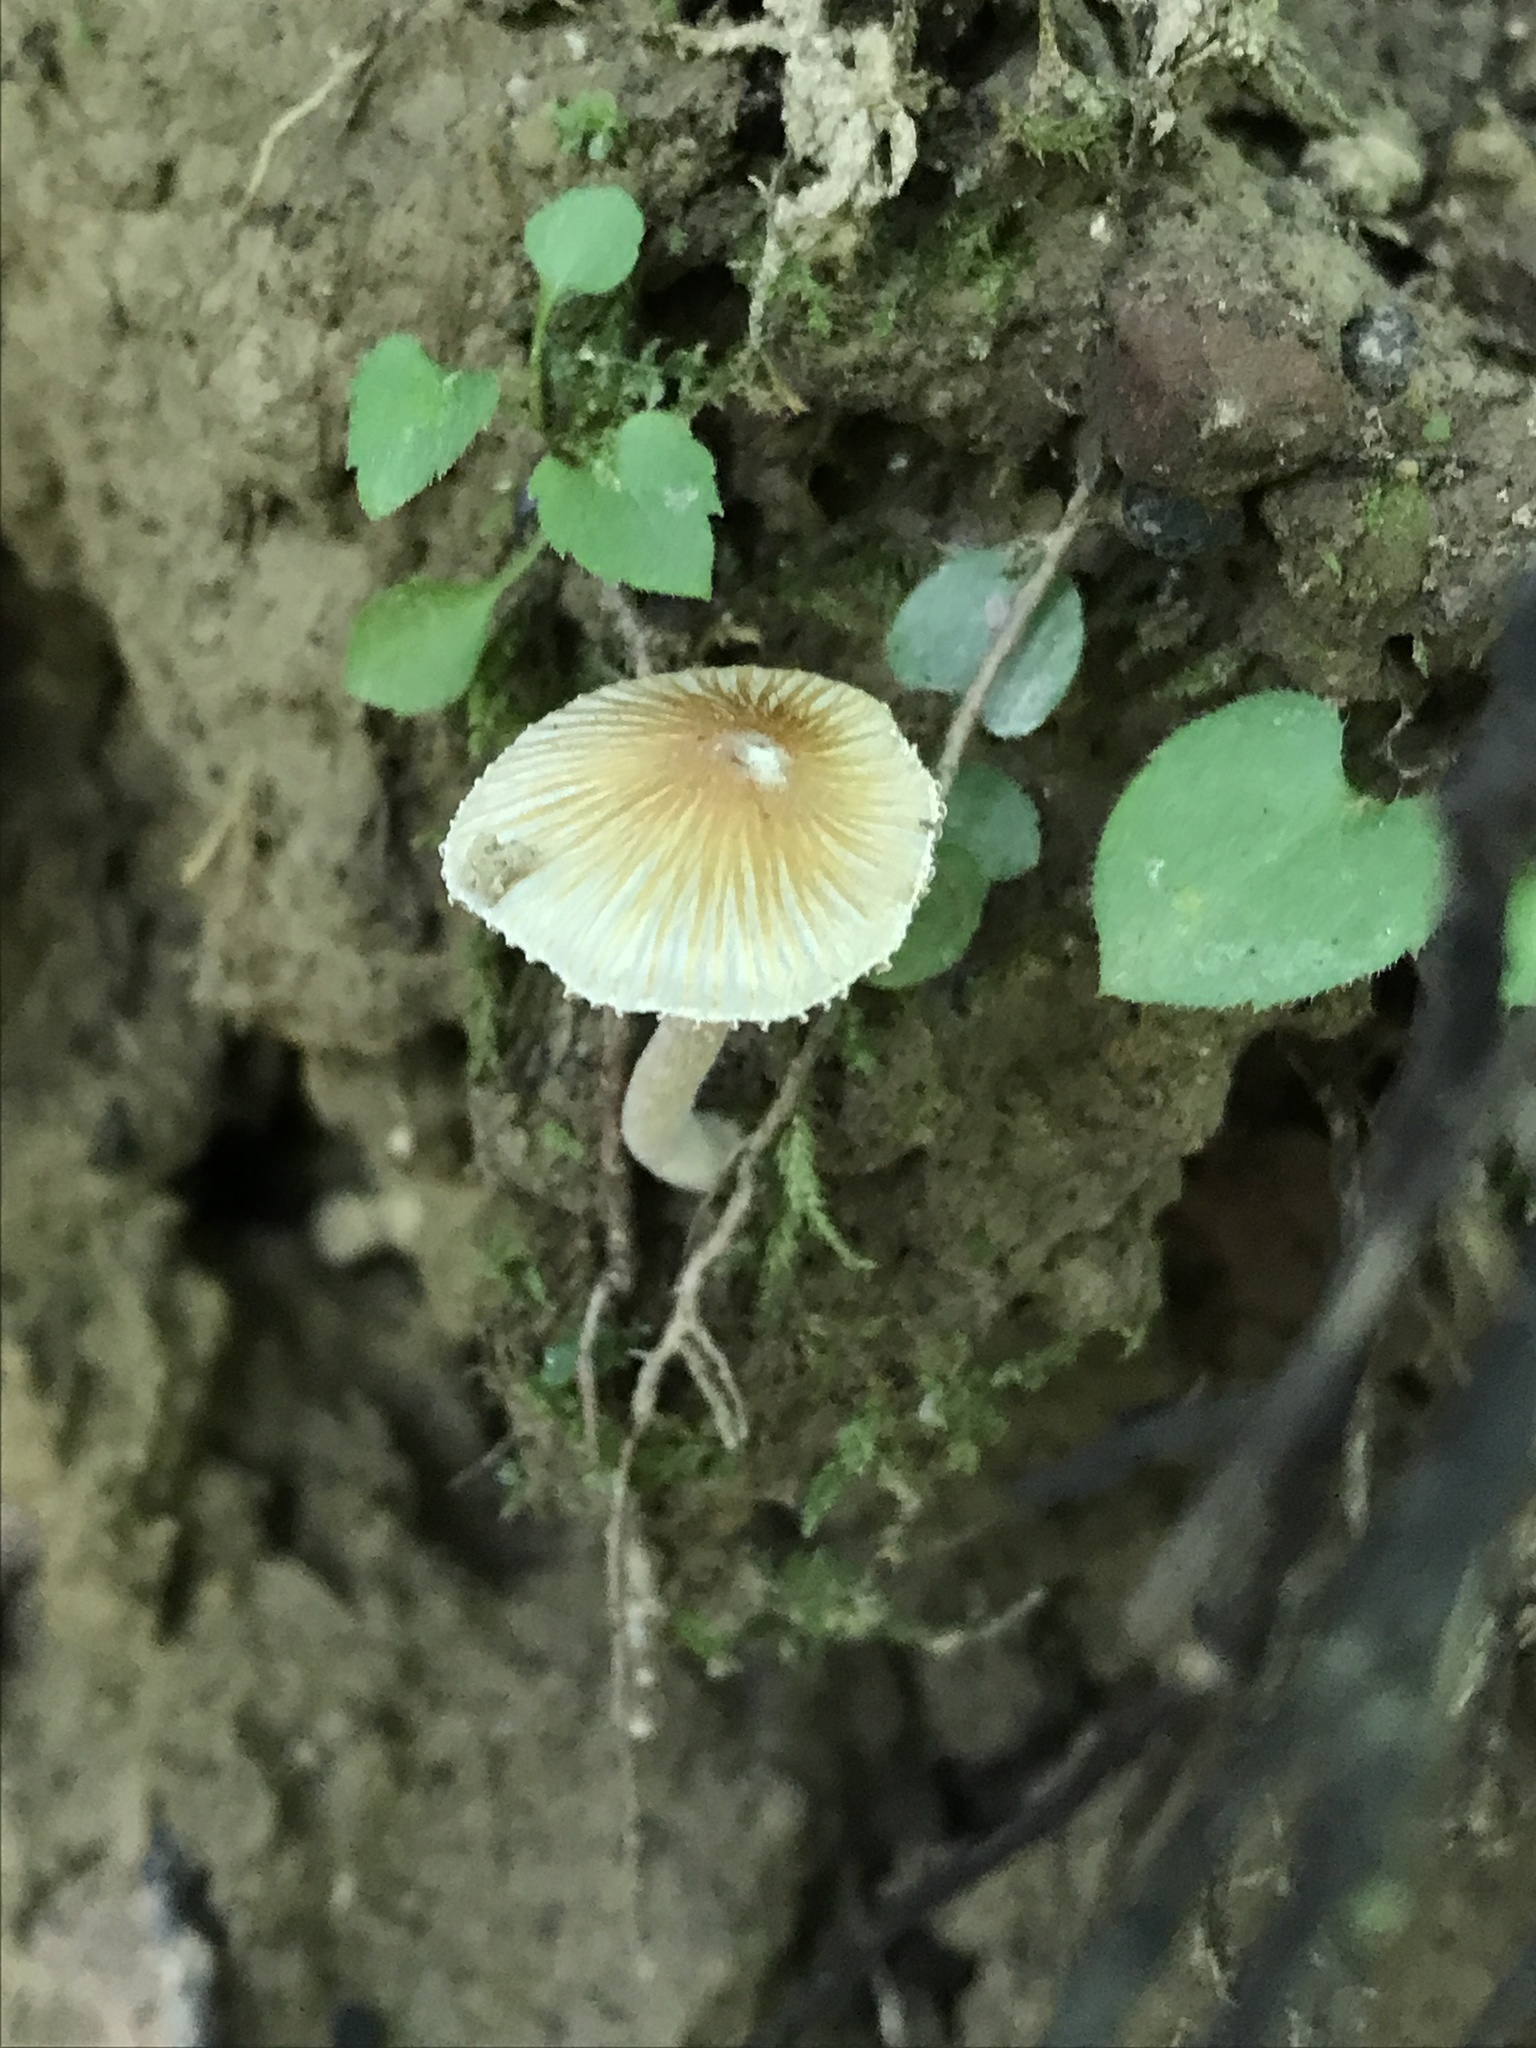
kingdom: Fungi
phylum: Basidiomycota
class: Agaricomycetes
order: Agaricales
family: Inocybaceae
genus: Pseudosperma
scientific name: Pseudosperma friabile
